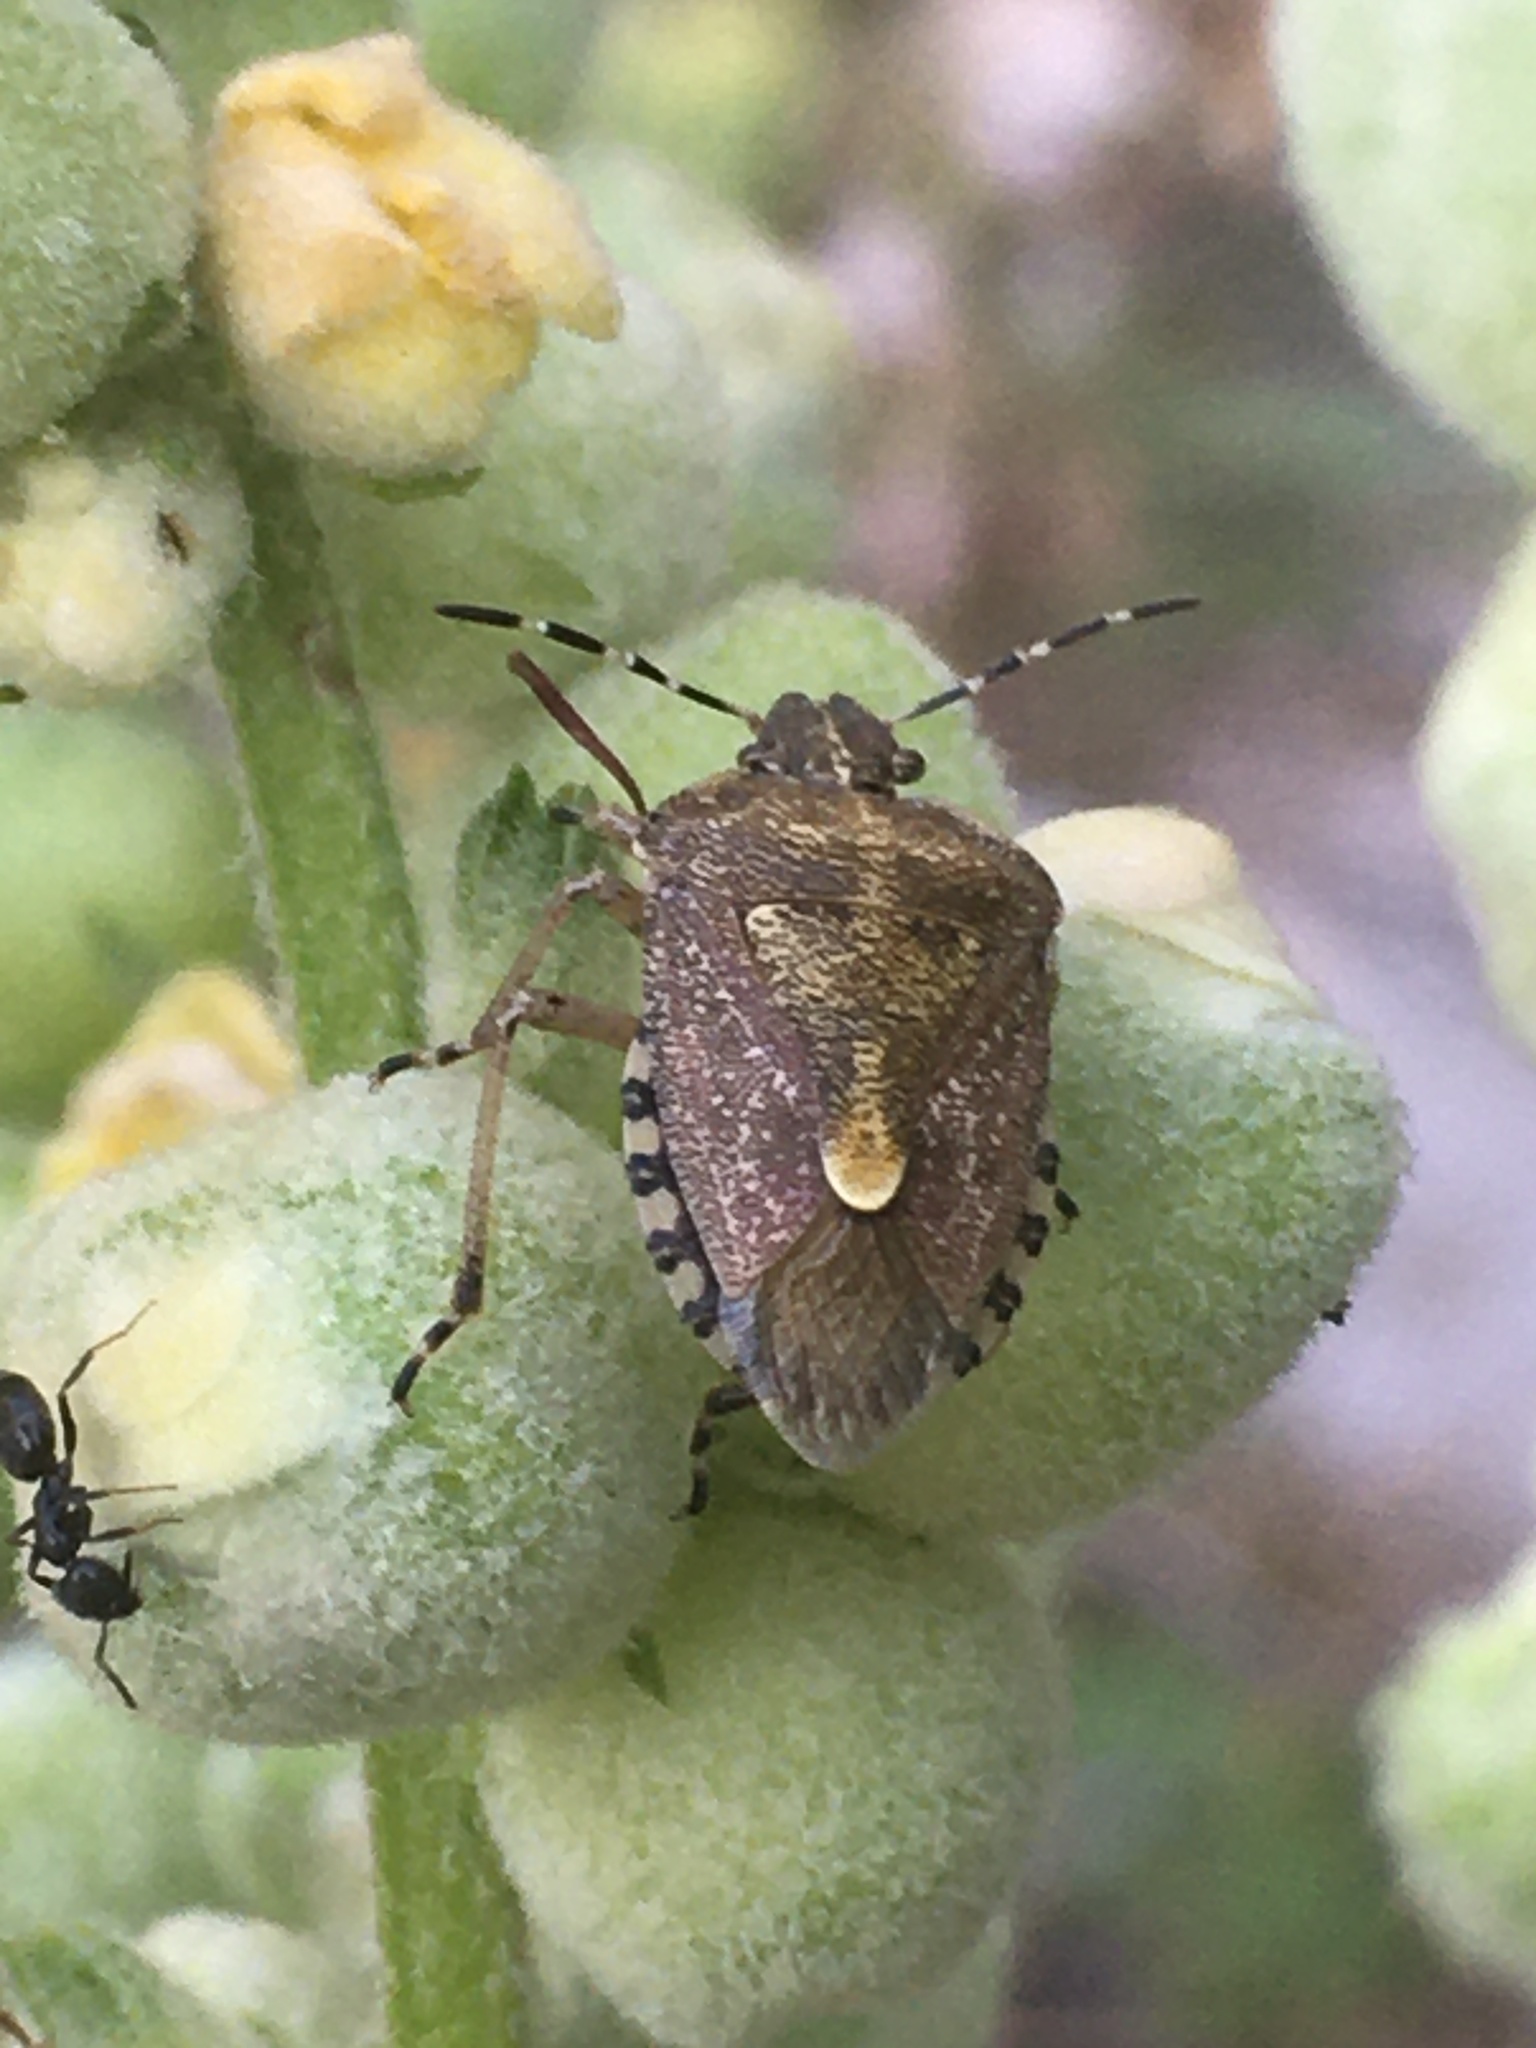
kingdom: Animalia
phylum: Arthropoda
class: Insecta
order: Hemiptera
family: Pentatomidae
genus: Dolycoris
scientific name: Dolycoris baccarum
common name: Sloe bug
